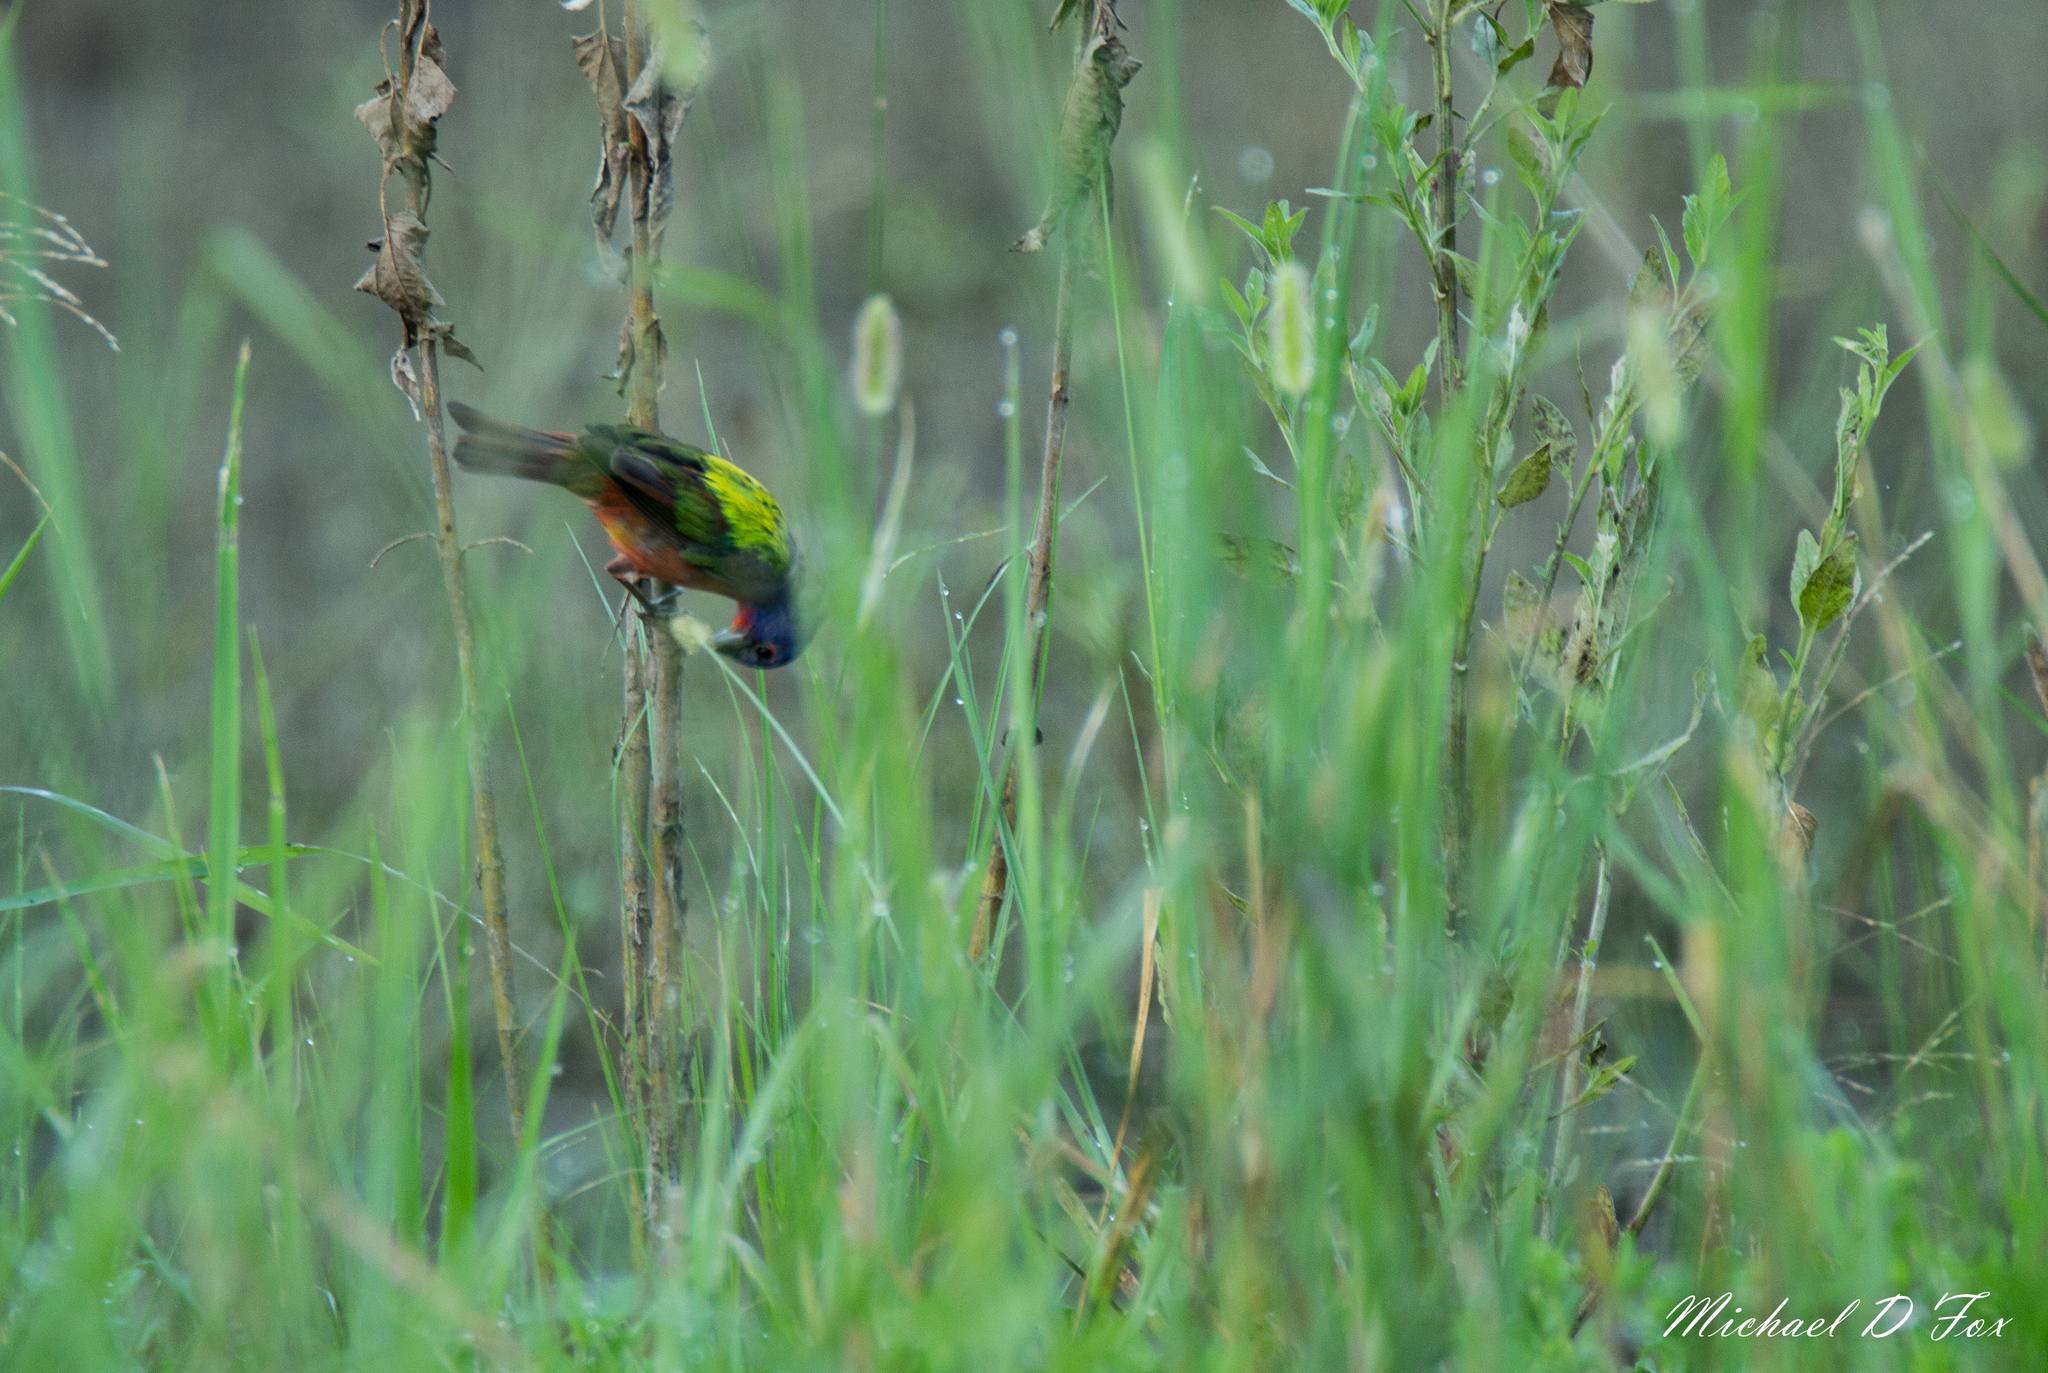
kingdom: Animalia
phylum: Chordata
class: Aves
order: Passeriformes
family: Cardinalidae
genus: Passerina
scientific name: Passerina ciris
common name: Painted bunting
